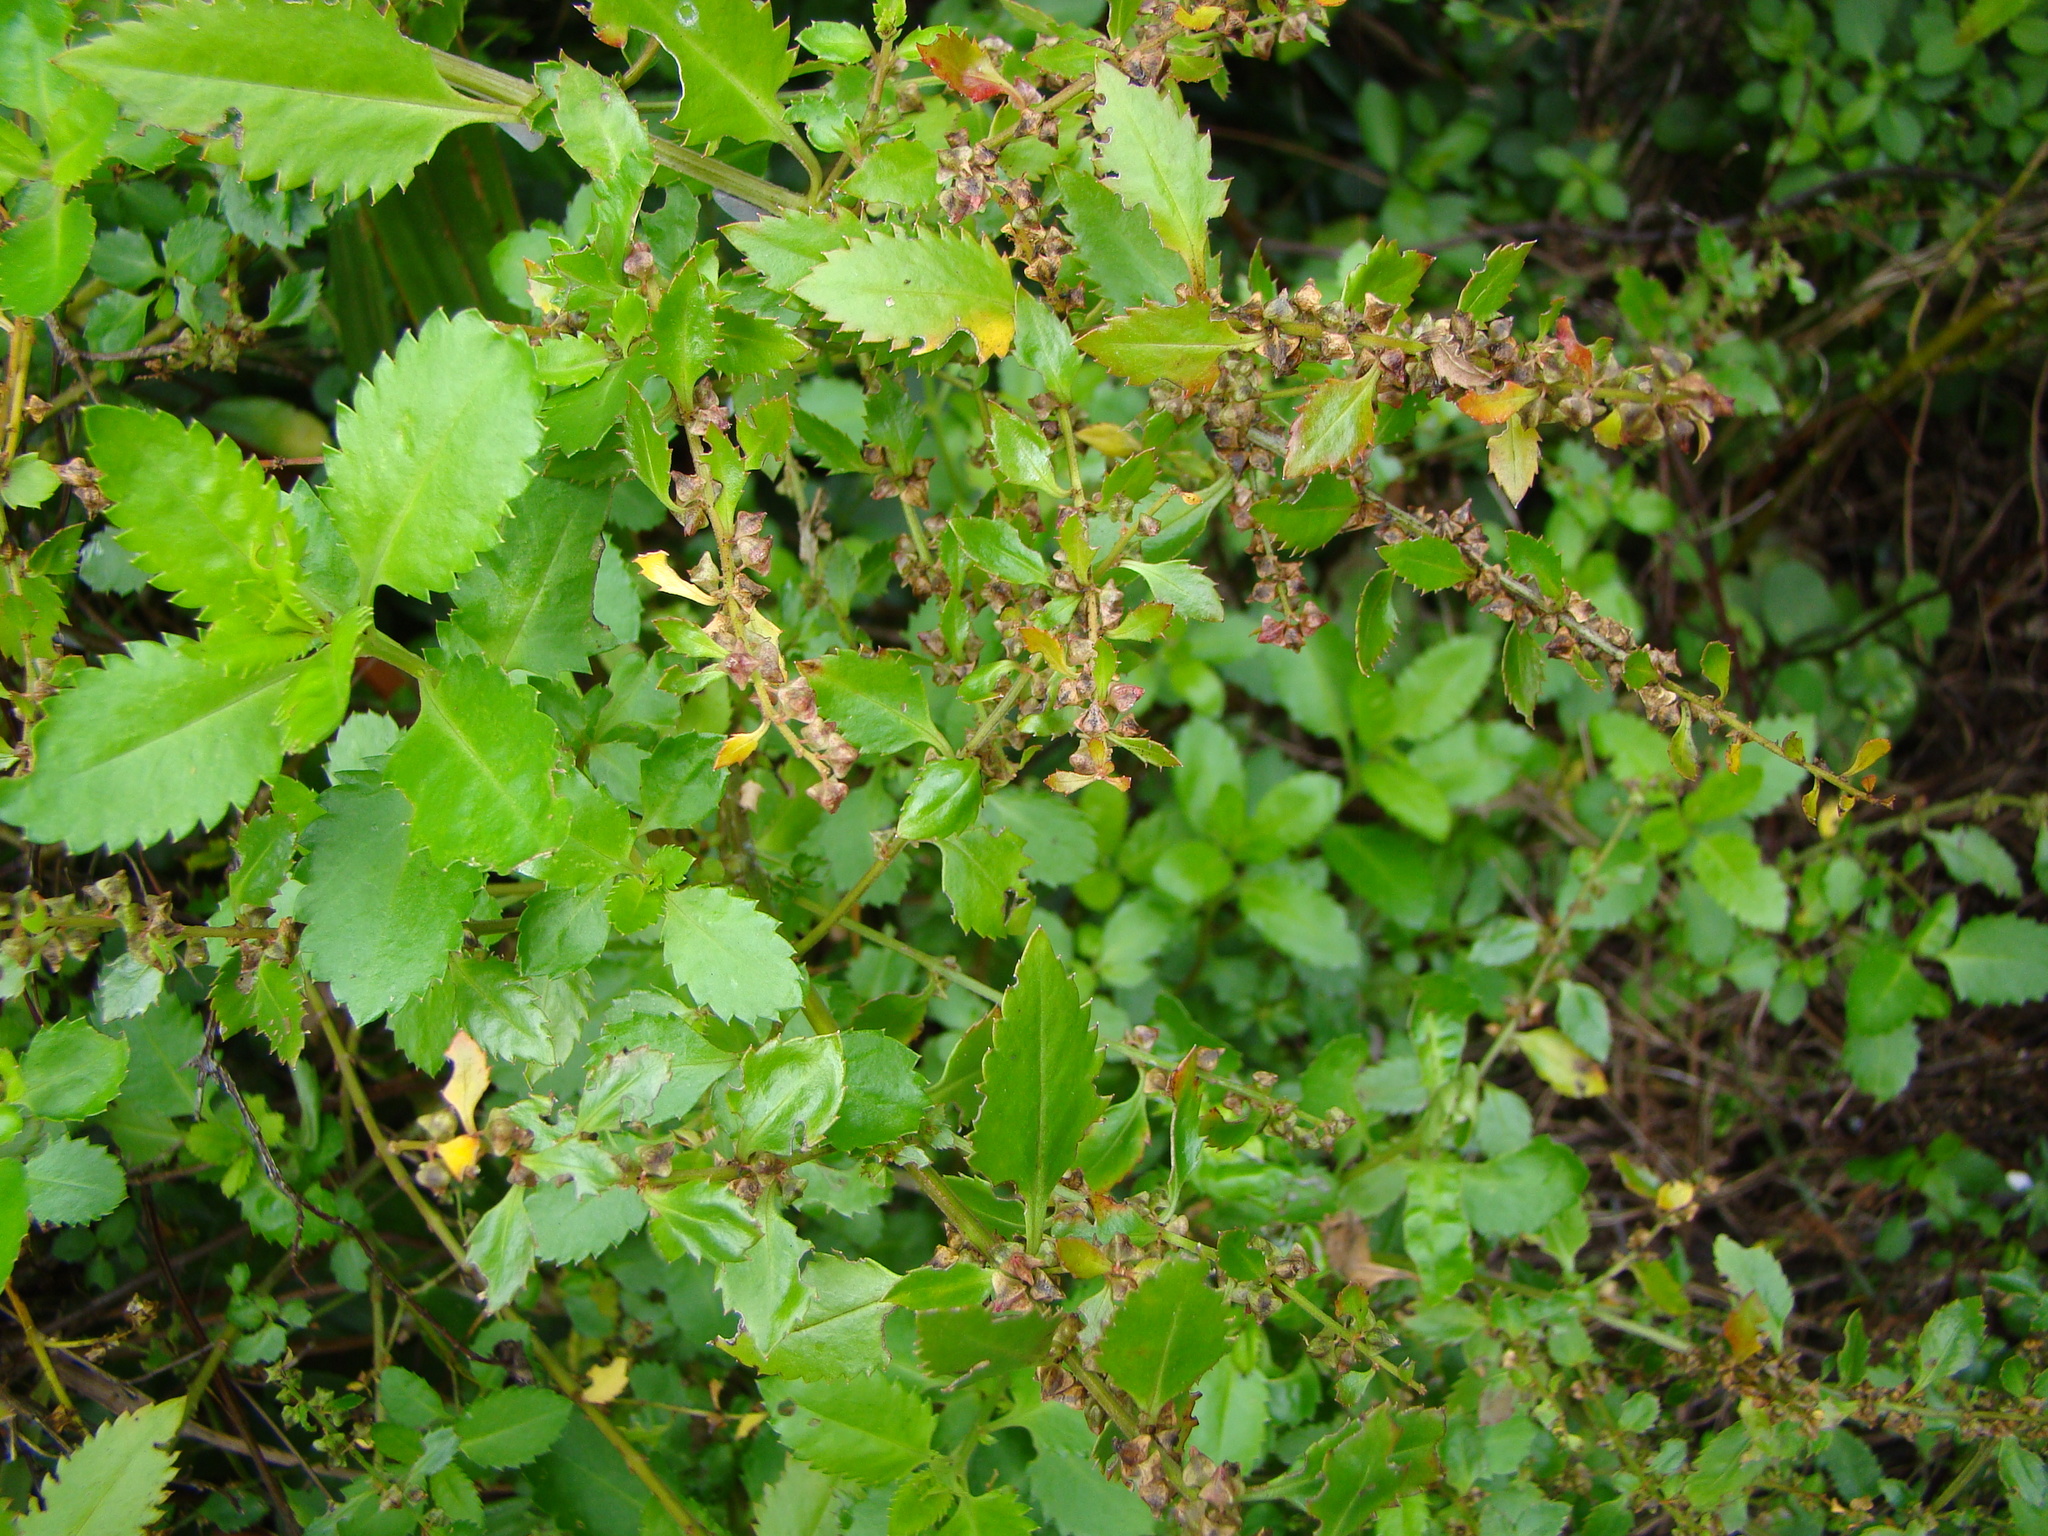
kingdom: Plantae
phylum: Tracheophyta
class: Magnoliopsida
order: Saxifragales
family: Haloragaceae
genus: Haloragis
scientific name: Haloragis erecta
